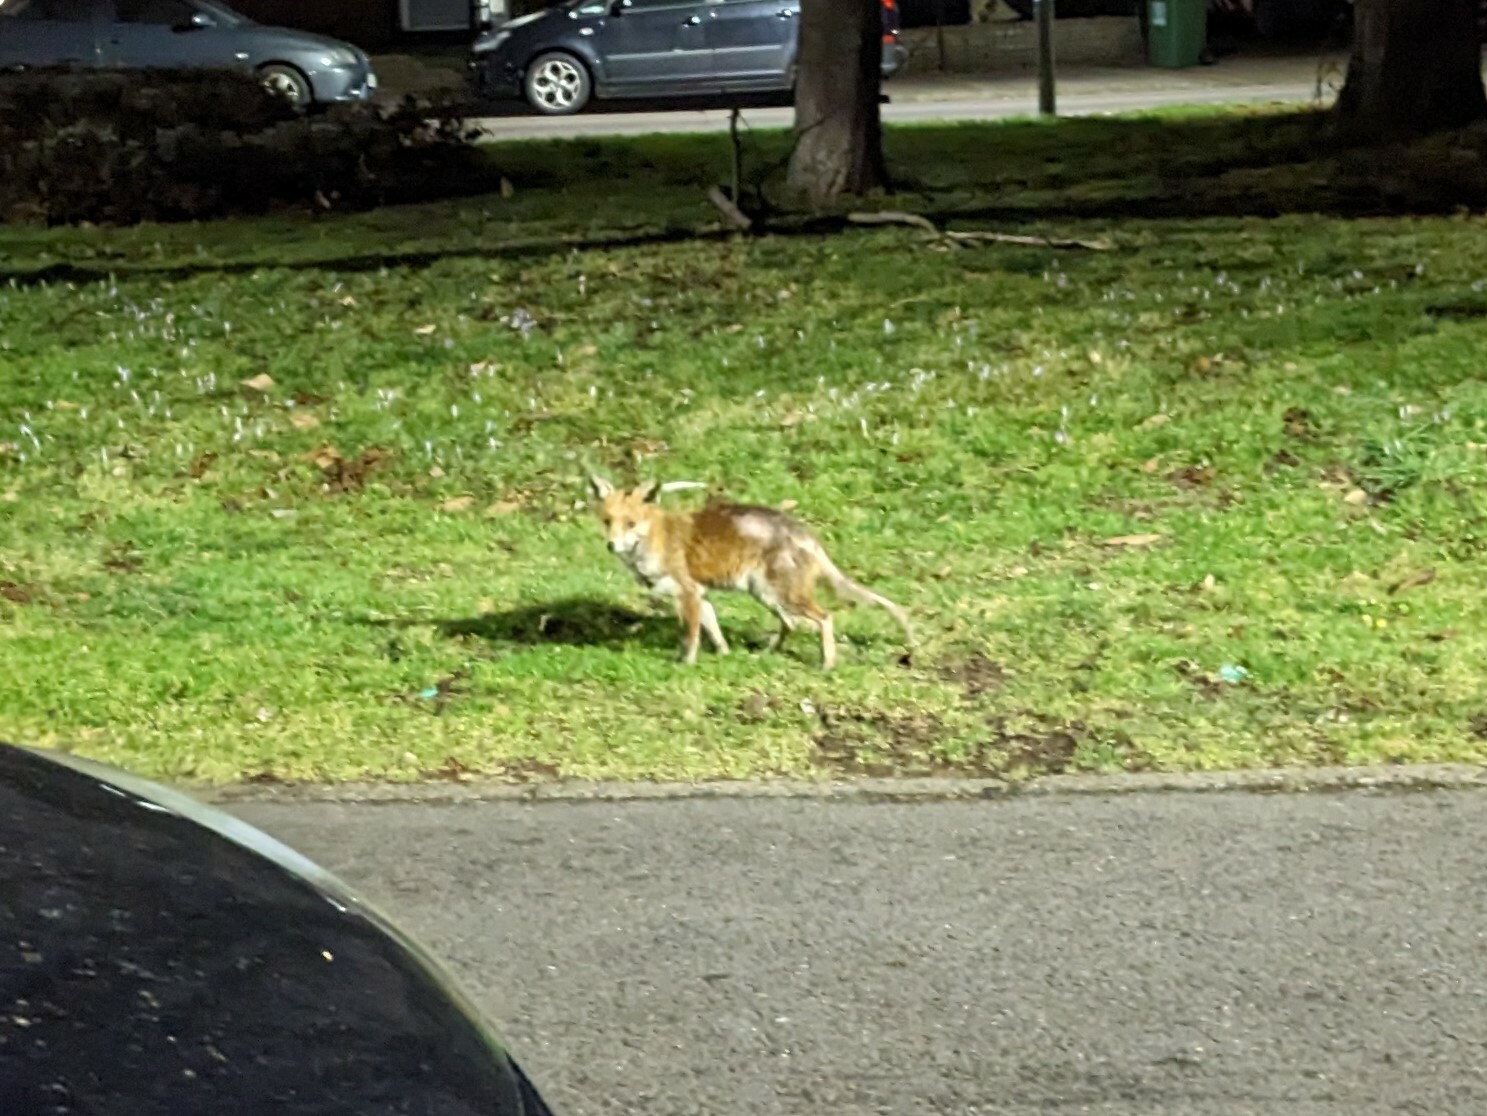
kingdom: Animalia
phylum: Chordata
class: Mammalia
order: Carnivora
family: Canidae
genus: Vulpes
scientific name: Vulpes vulpes
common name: Red fox
